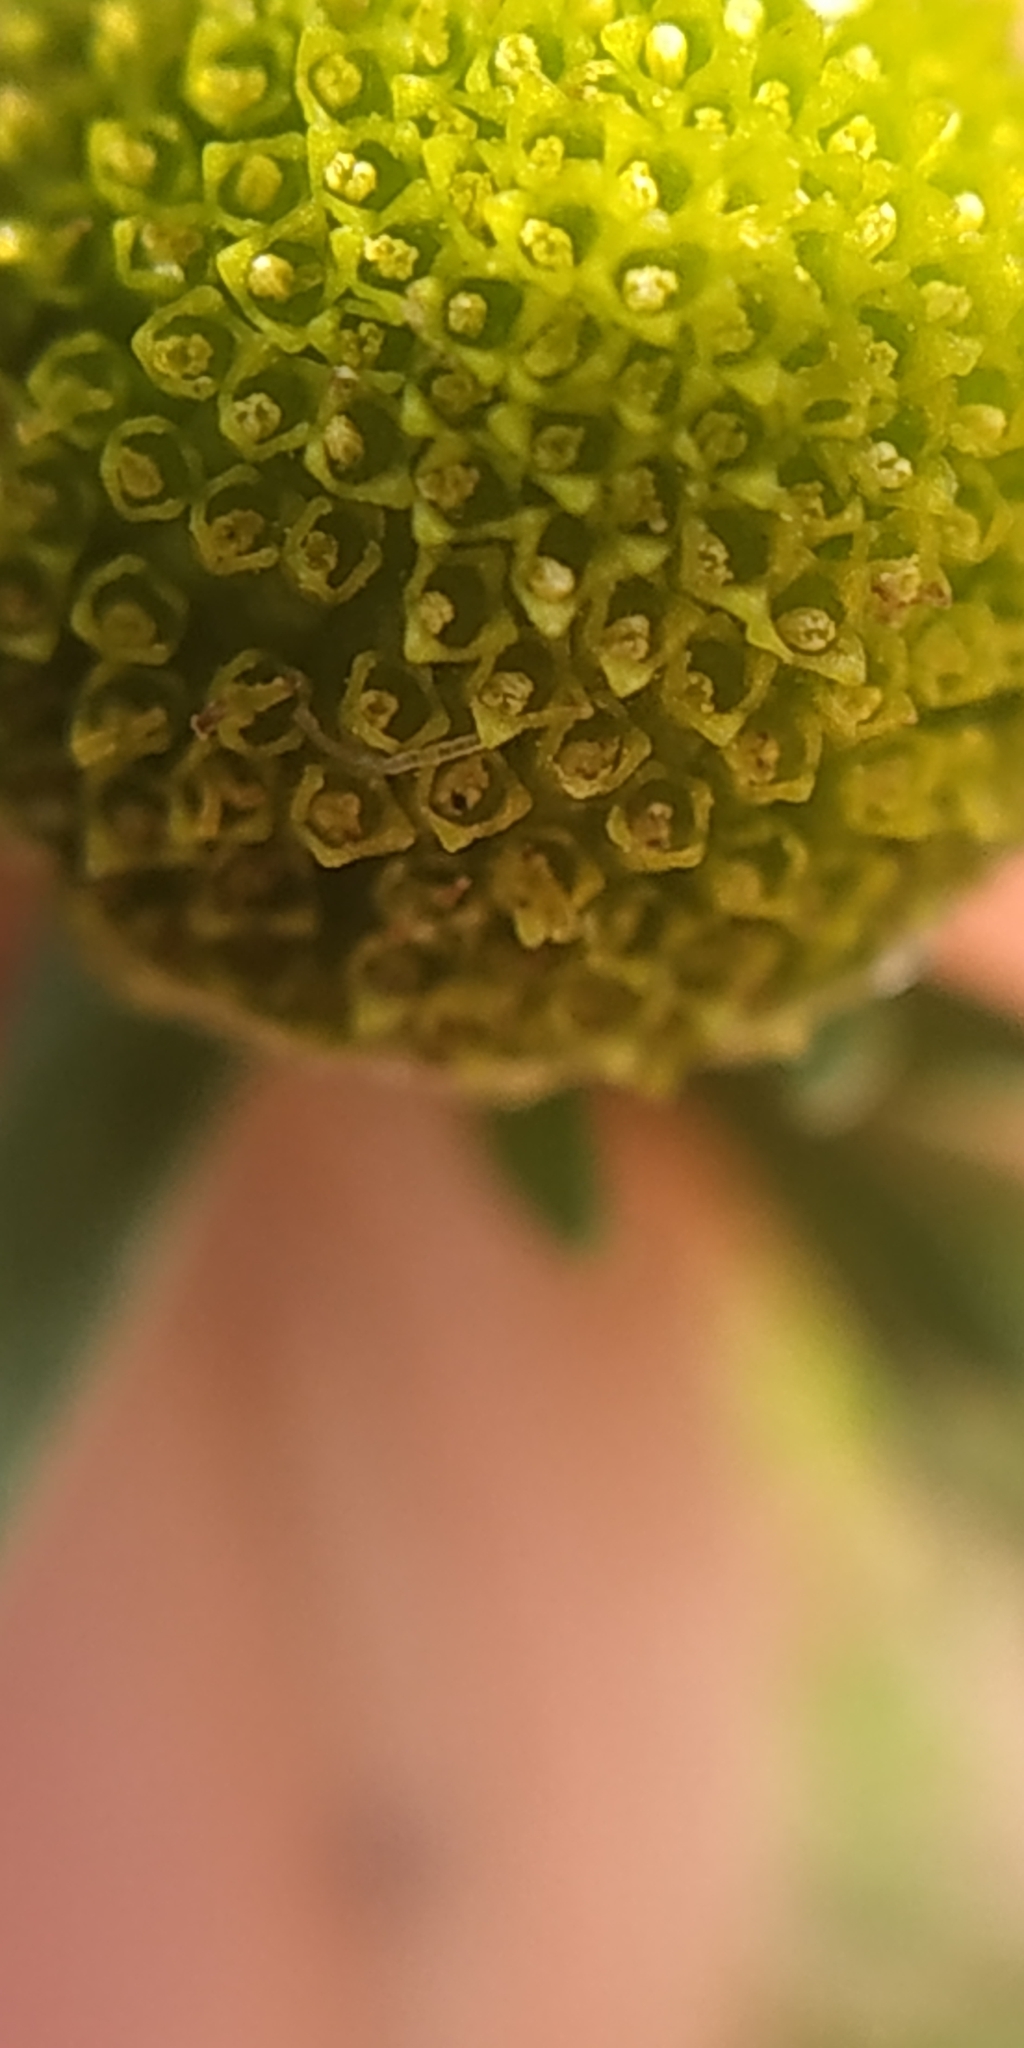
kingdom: Plantae
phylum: Tracheophyta
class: Magnoliopsida
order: Asterales
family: Asteraceae
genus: Matricaria
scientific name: Matricaria discoidea
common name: Disc mayweed
